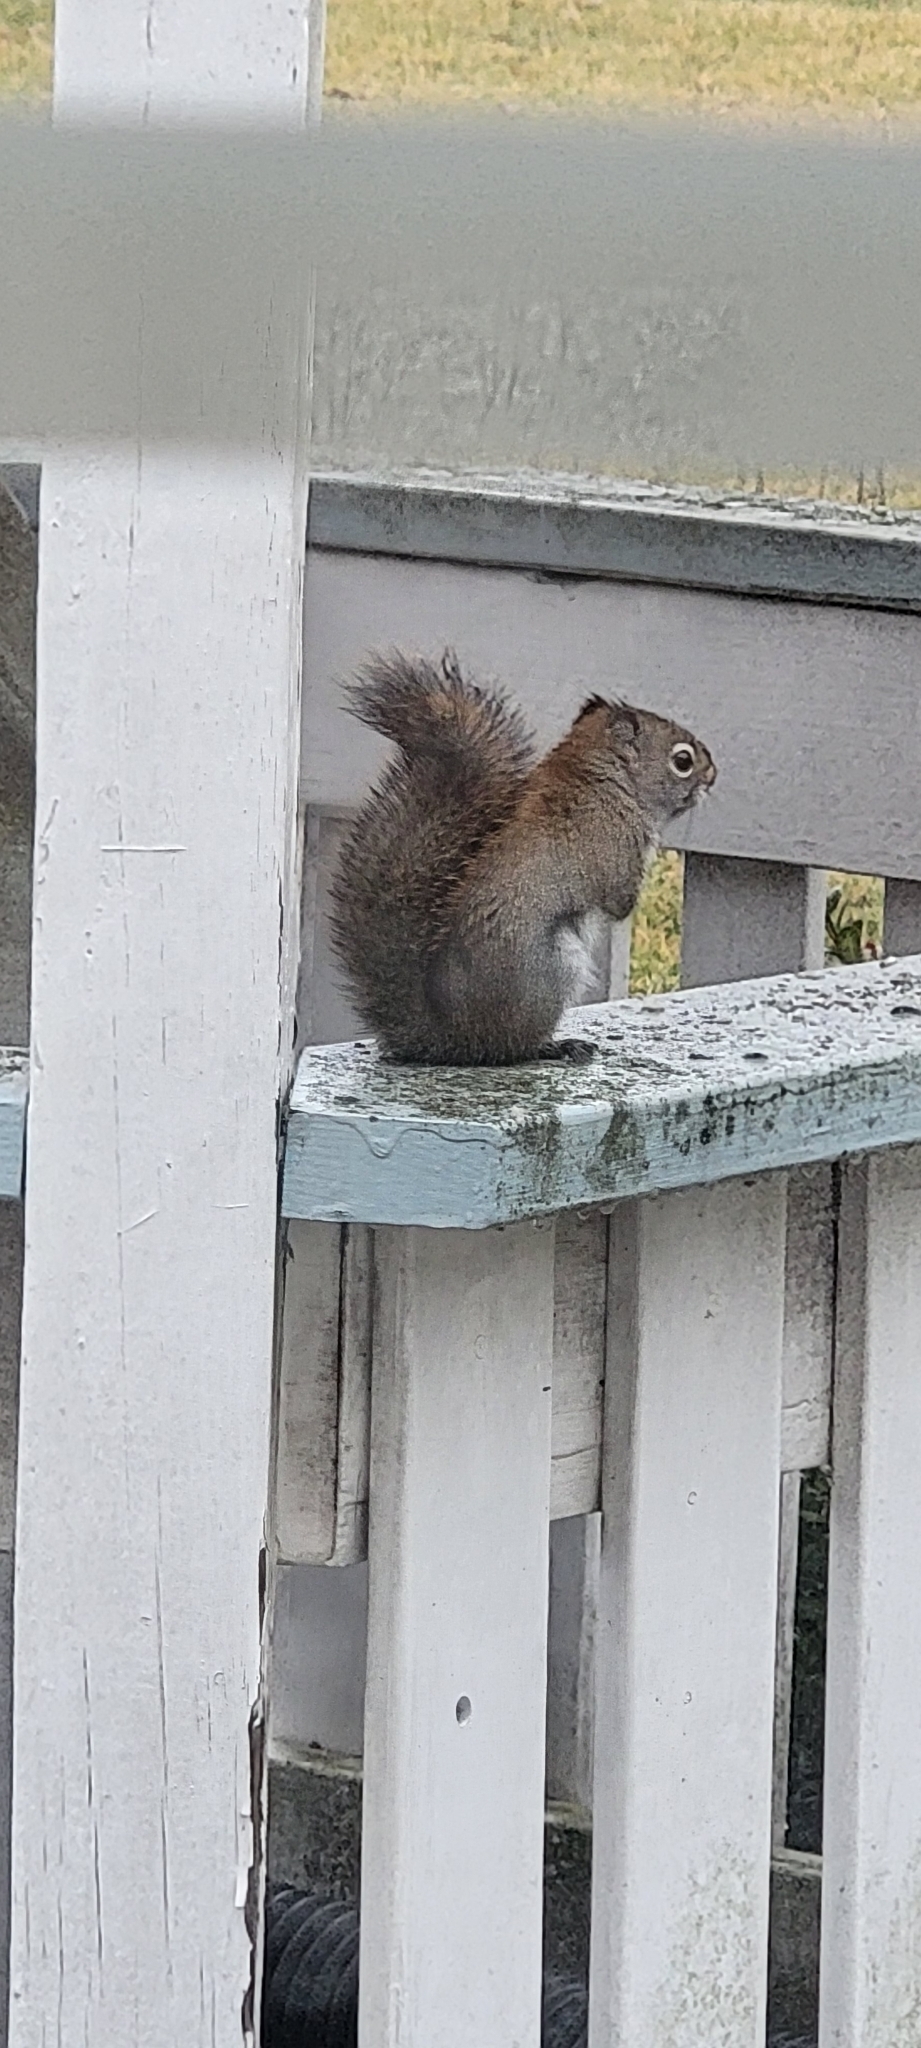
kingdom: Animalia
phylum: Chordata
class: Mammalia
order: Rodentia
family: Sciuridae
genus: Tamiasciurus
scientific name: Tamiasciurus hudsonicus
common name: Red squirrel
